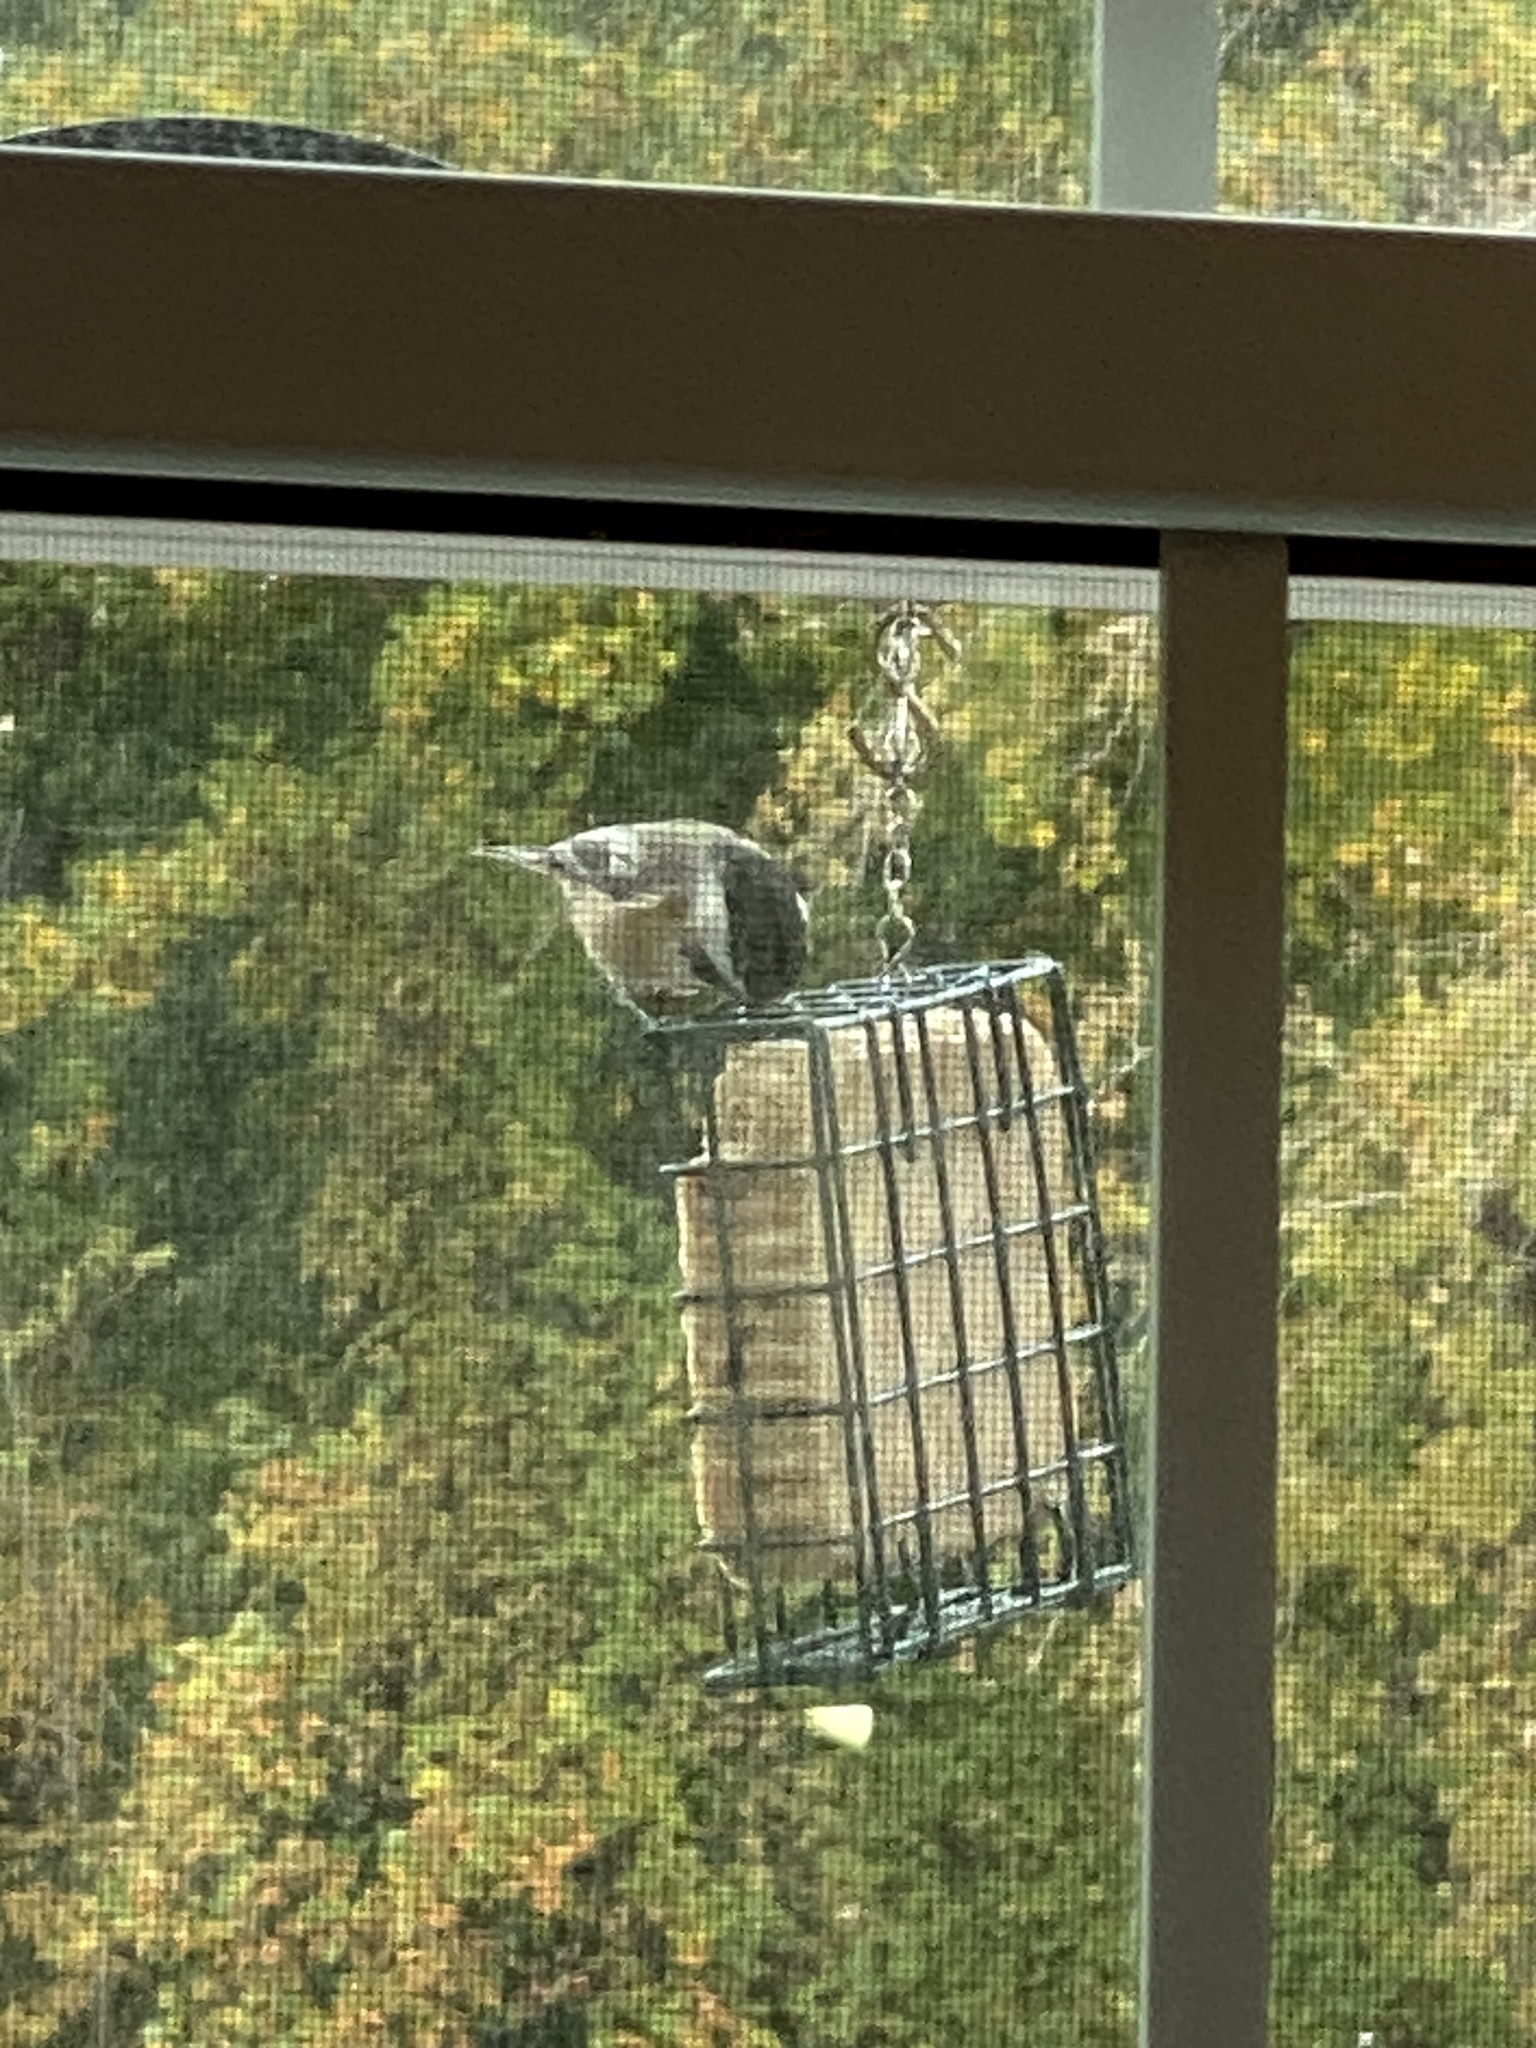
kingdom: Animalia
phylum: Chordata
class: Aves
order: Passeriformes
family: Paridae
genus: Poecile
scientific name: Poecile atricapillus
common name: Black-capped chickadee
